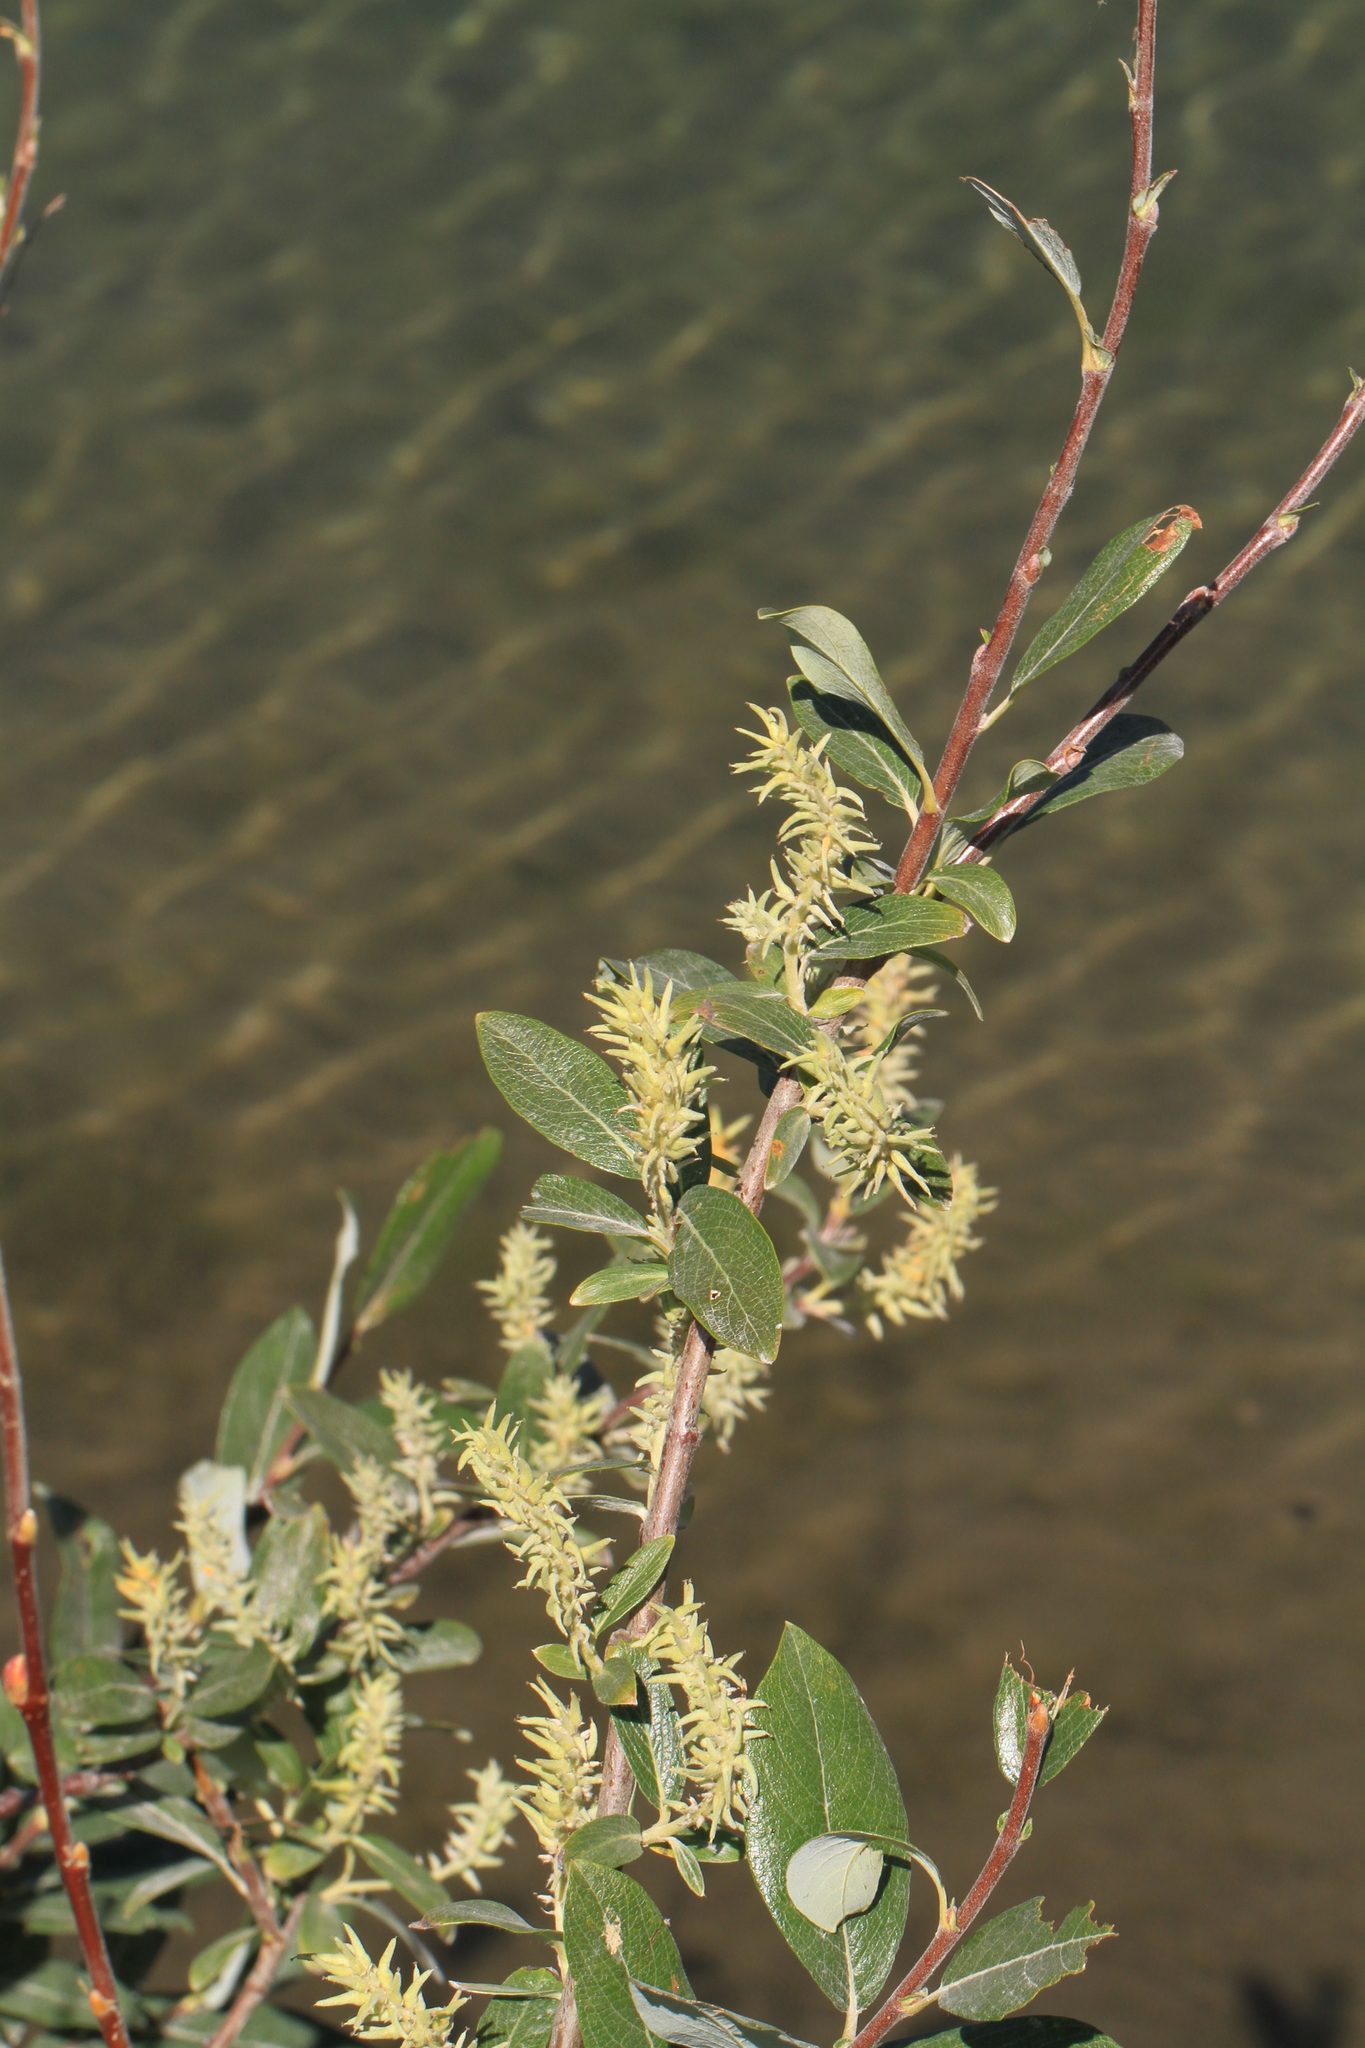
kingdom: Plantae
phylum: Tracheophyta
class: Magnoliopsida
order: Malpighiales
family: Salicaceae
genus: Salix
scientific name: Salix glauca
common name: Glaucous willow
